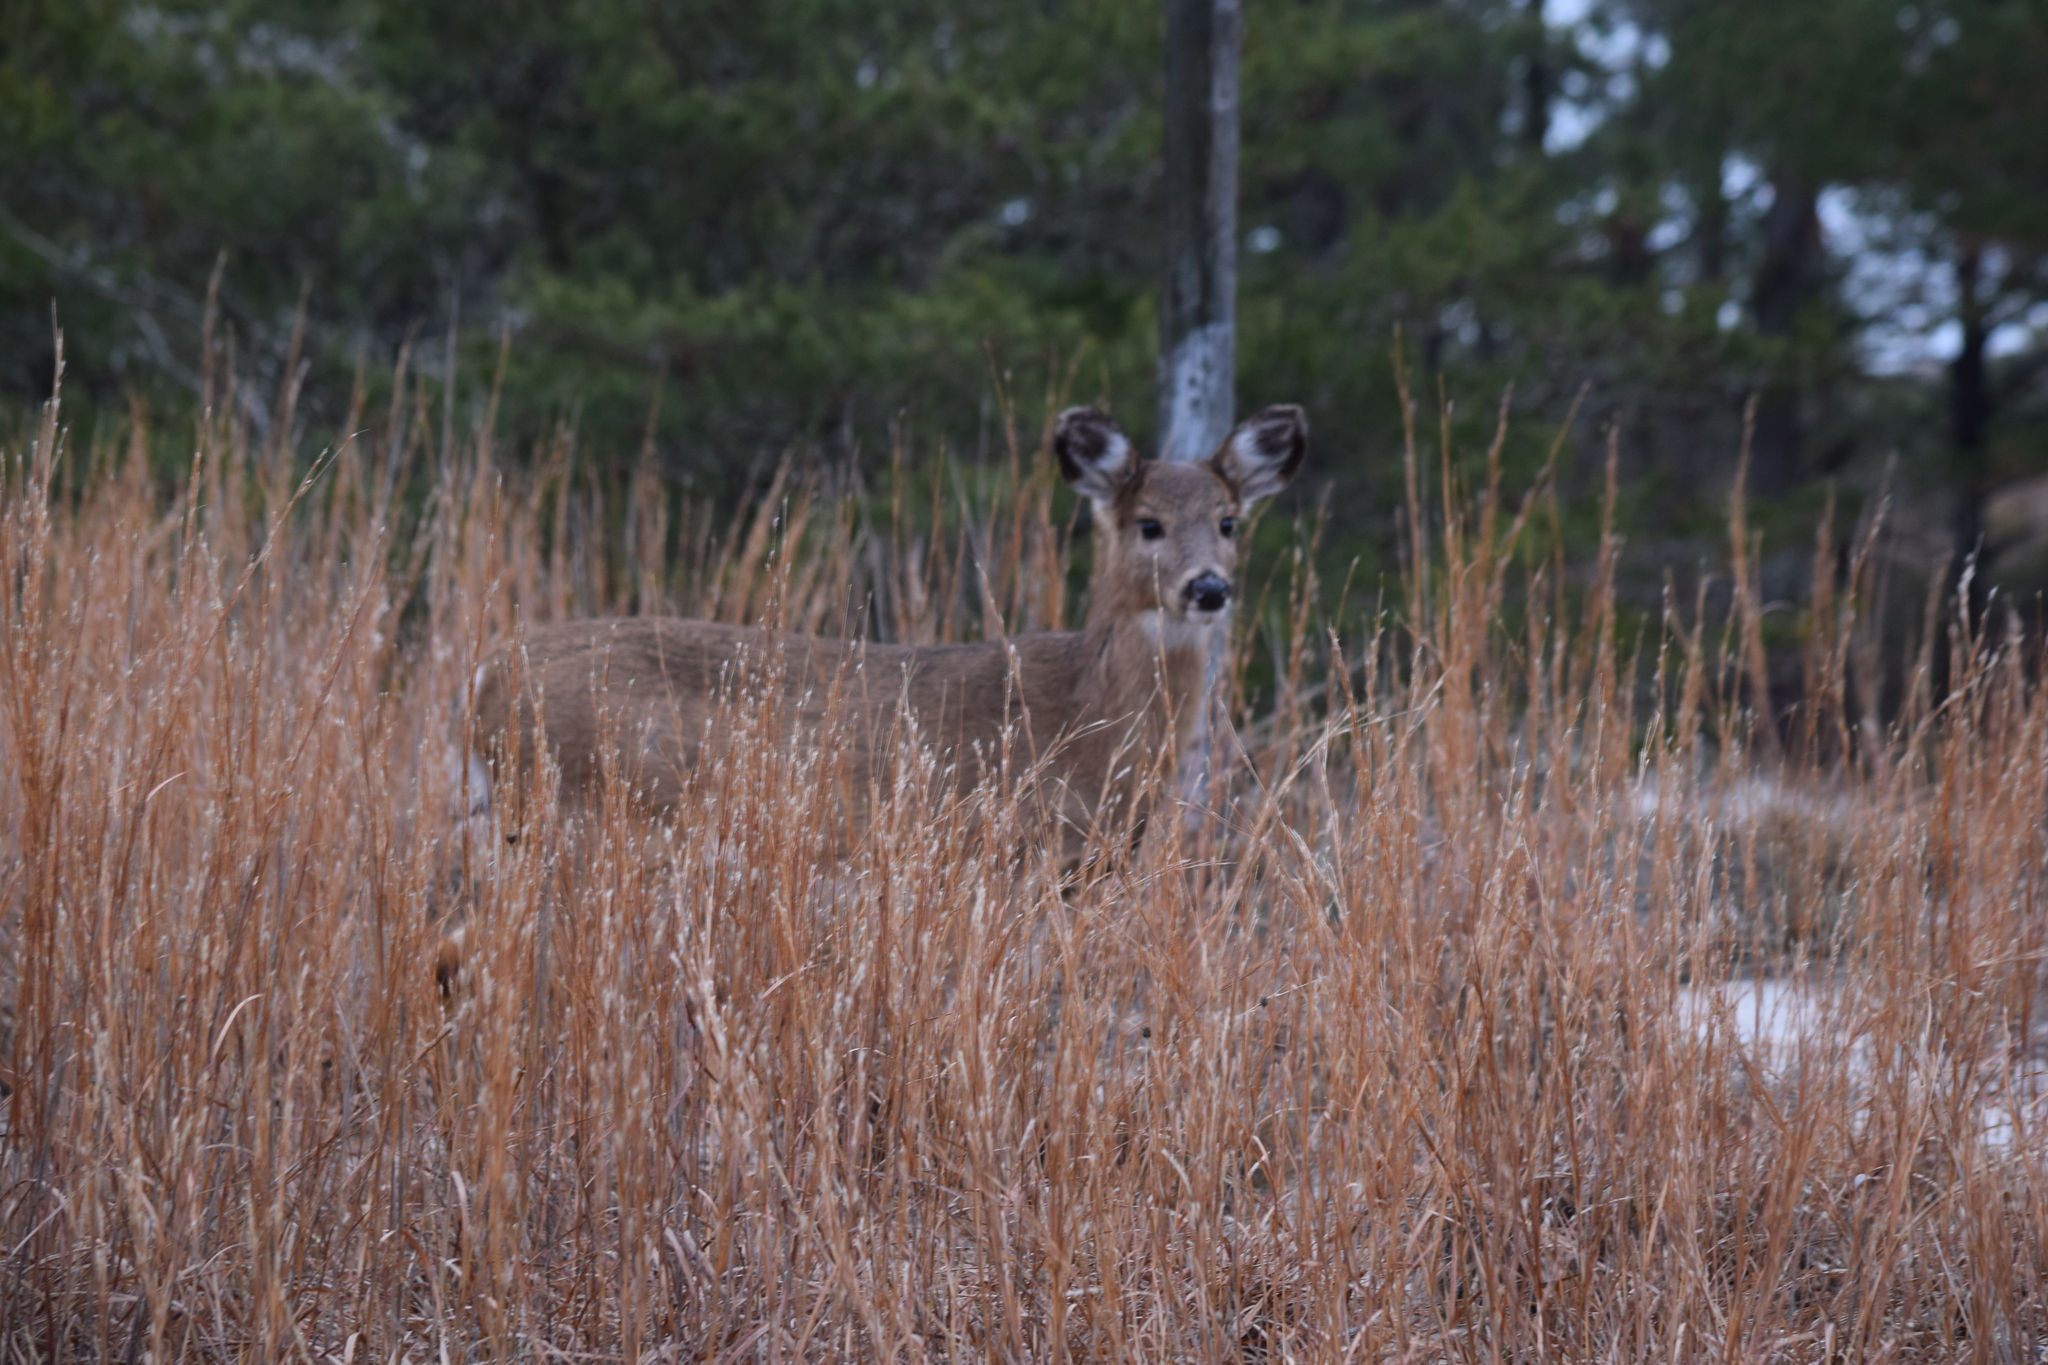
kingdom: Animalia
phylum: Chordata
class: Mammalia
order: Artiodactyla
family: Cervidae
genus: Odocoileus
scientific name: Odocoileus virginianus
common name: White-tailed deer
